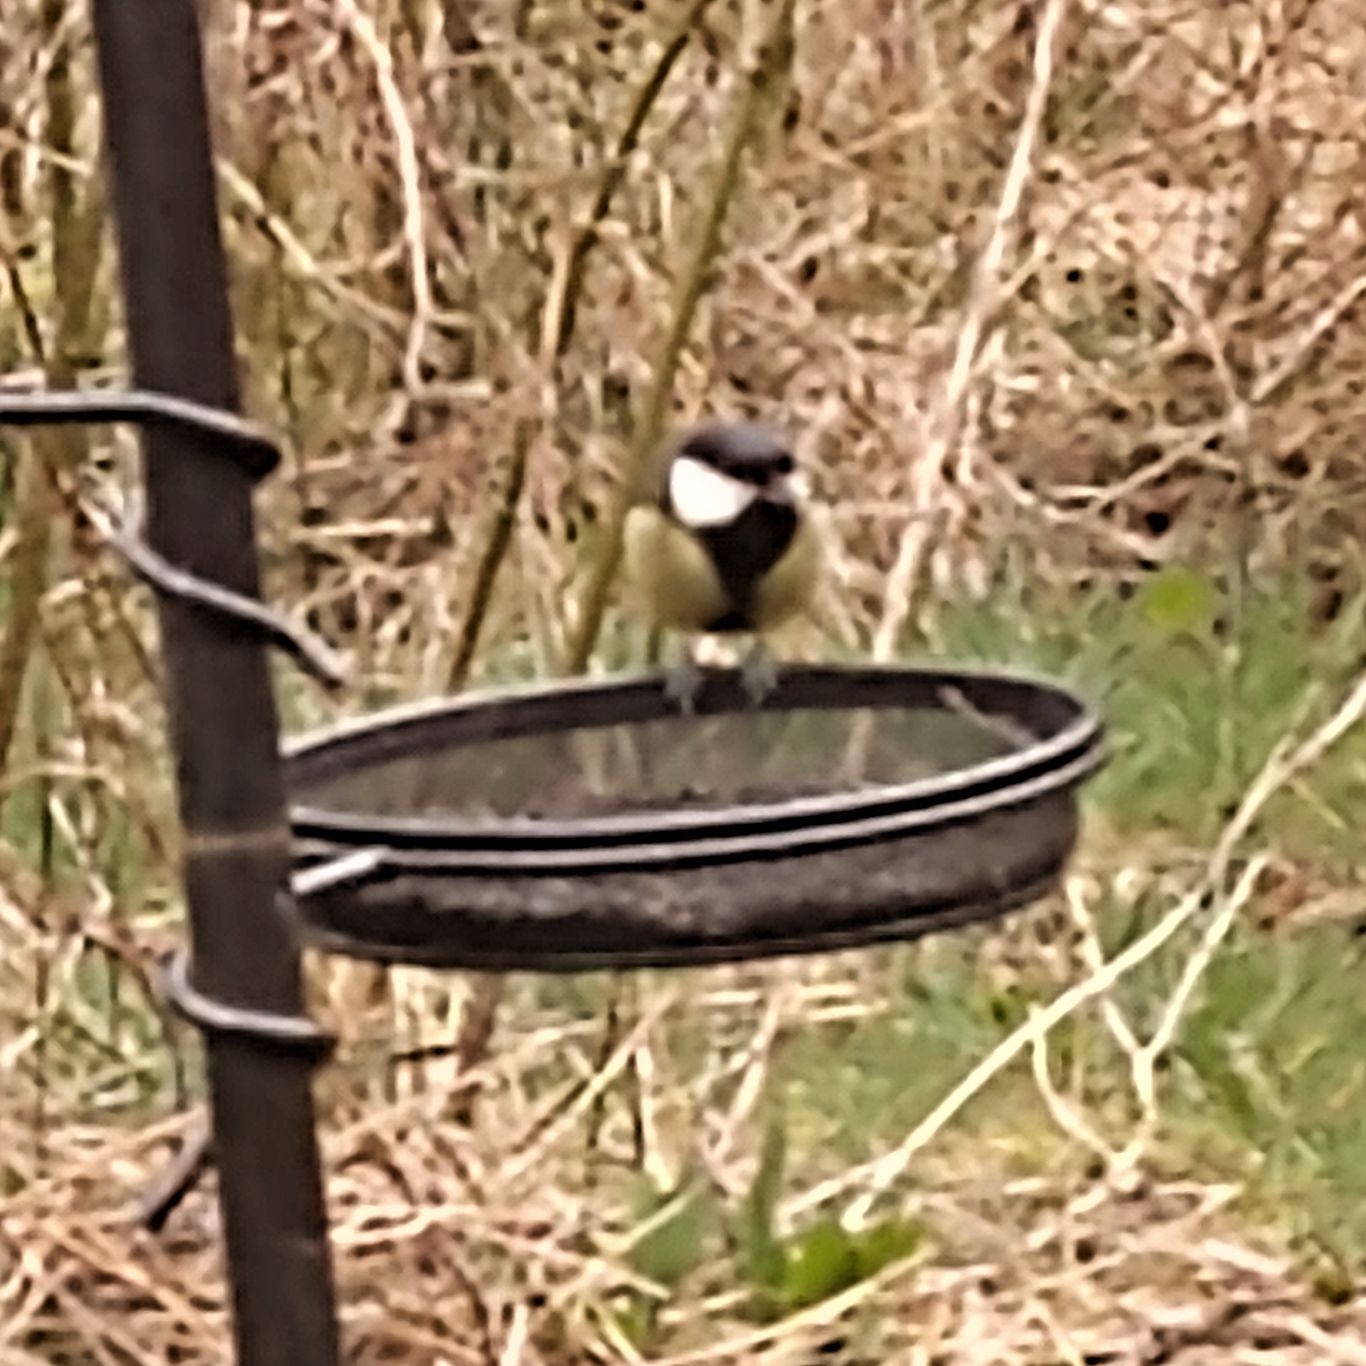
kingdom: Animalia
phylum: Chordata
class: Aves
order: Passeriformes
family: Paridae
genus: Parus
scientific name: Parus major
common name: Great tit
